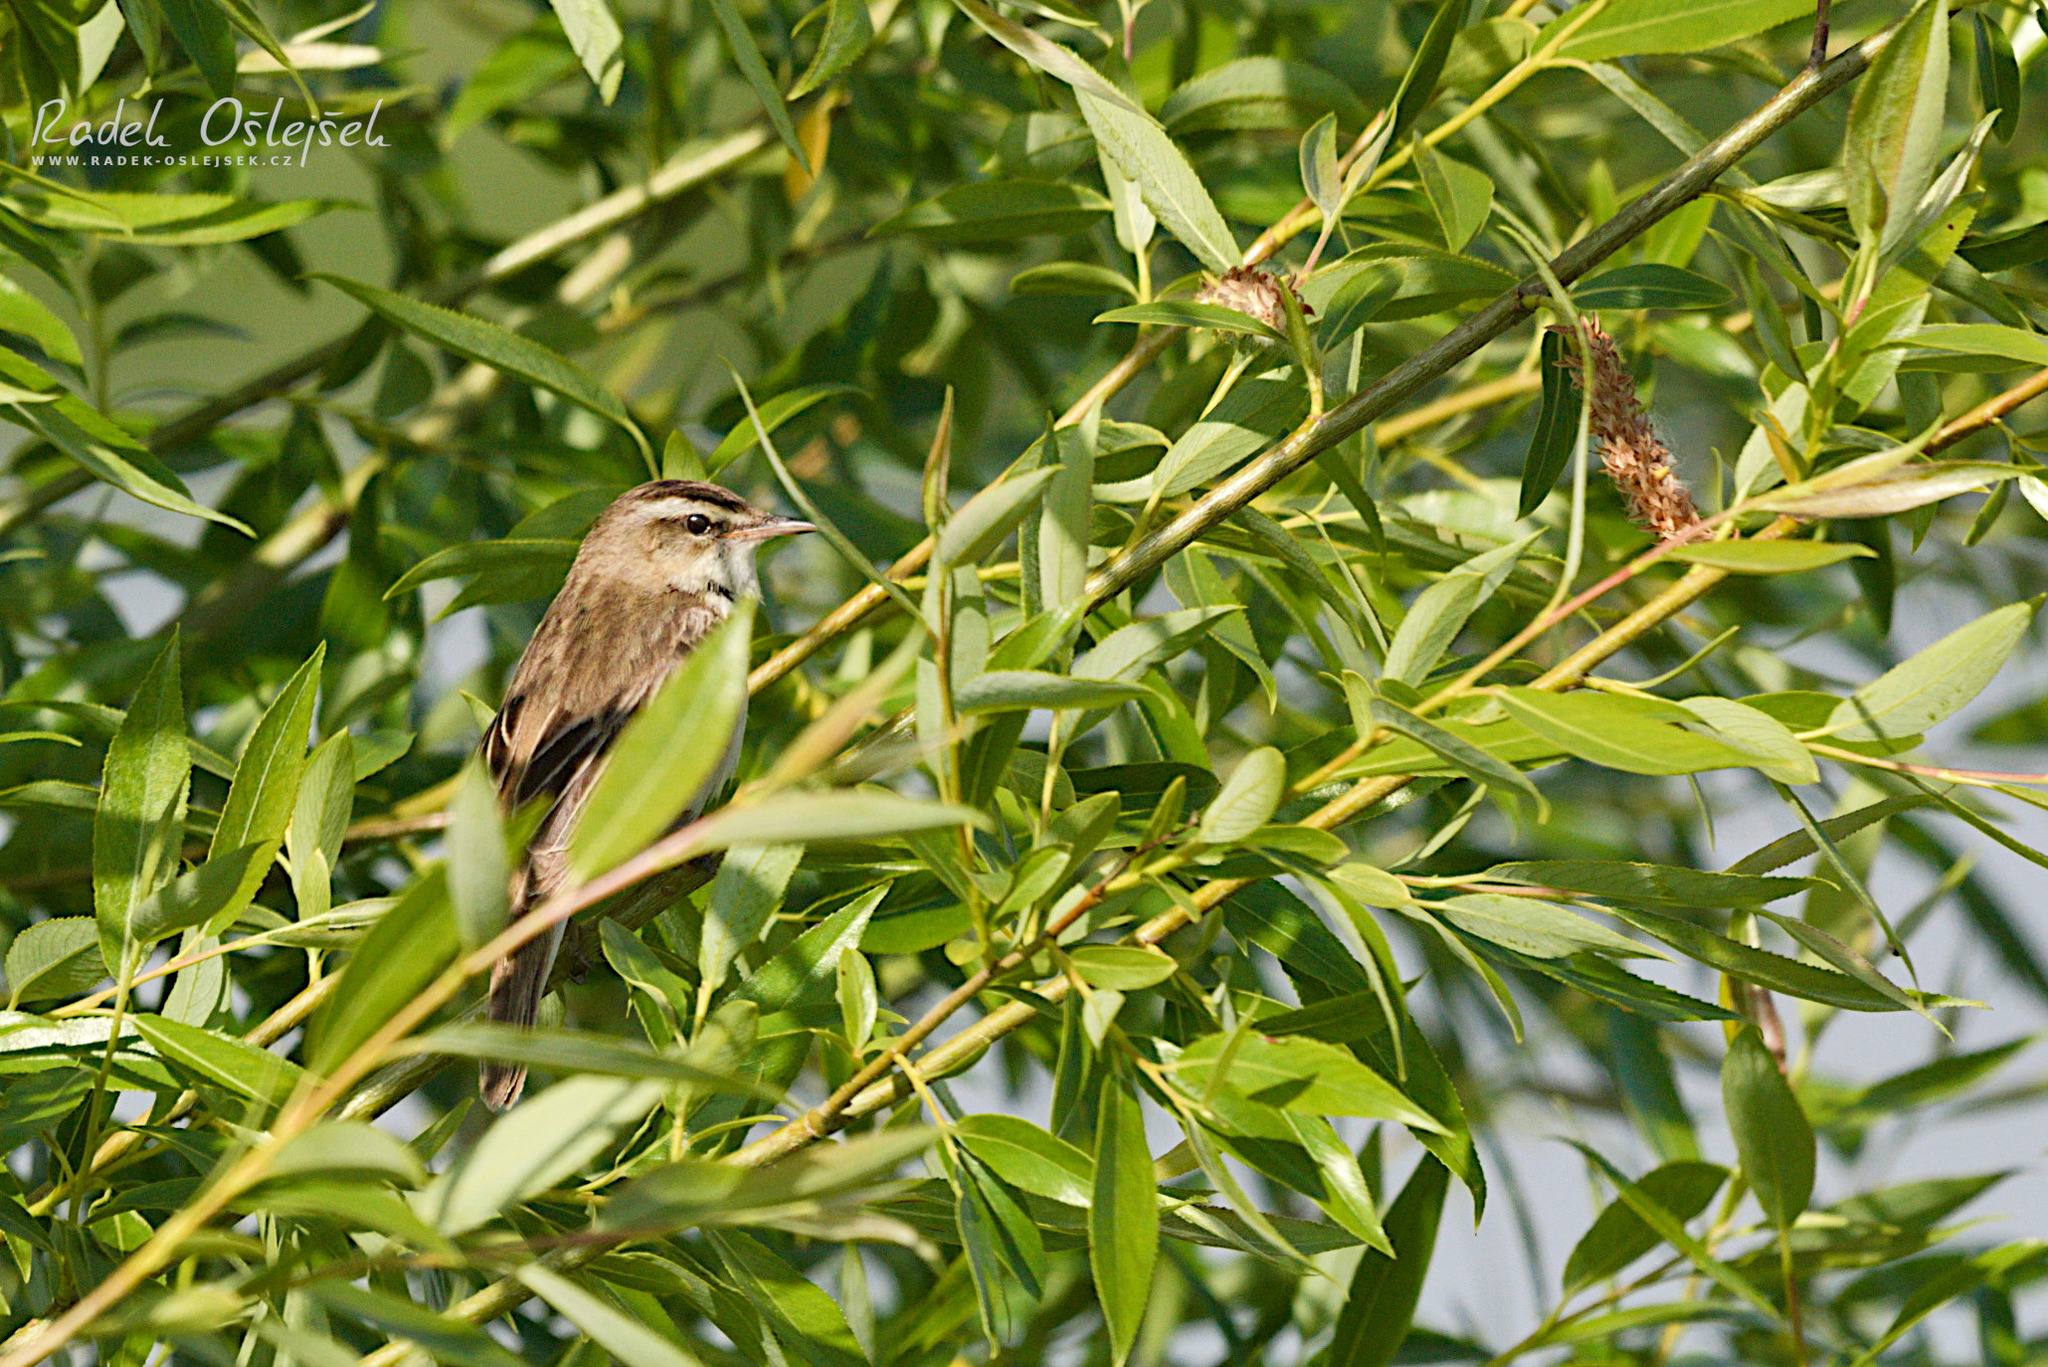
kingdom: Animalia
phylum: Chordata
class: Aves
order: Passeriformes
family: Acrocephalidae
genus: Acrocephalus
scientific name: Acrocephalus schoenobaenus
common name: Sedge warbler
